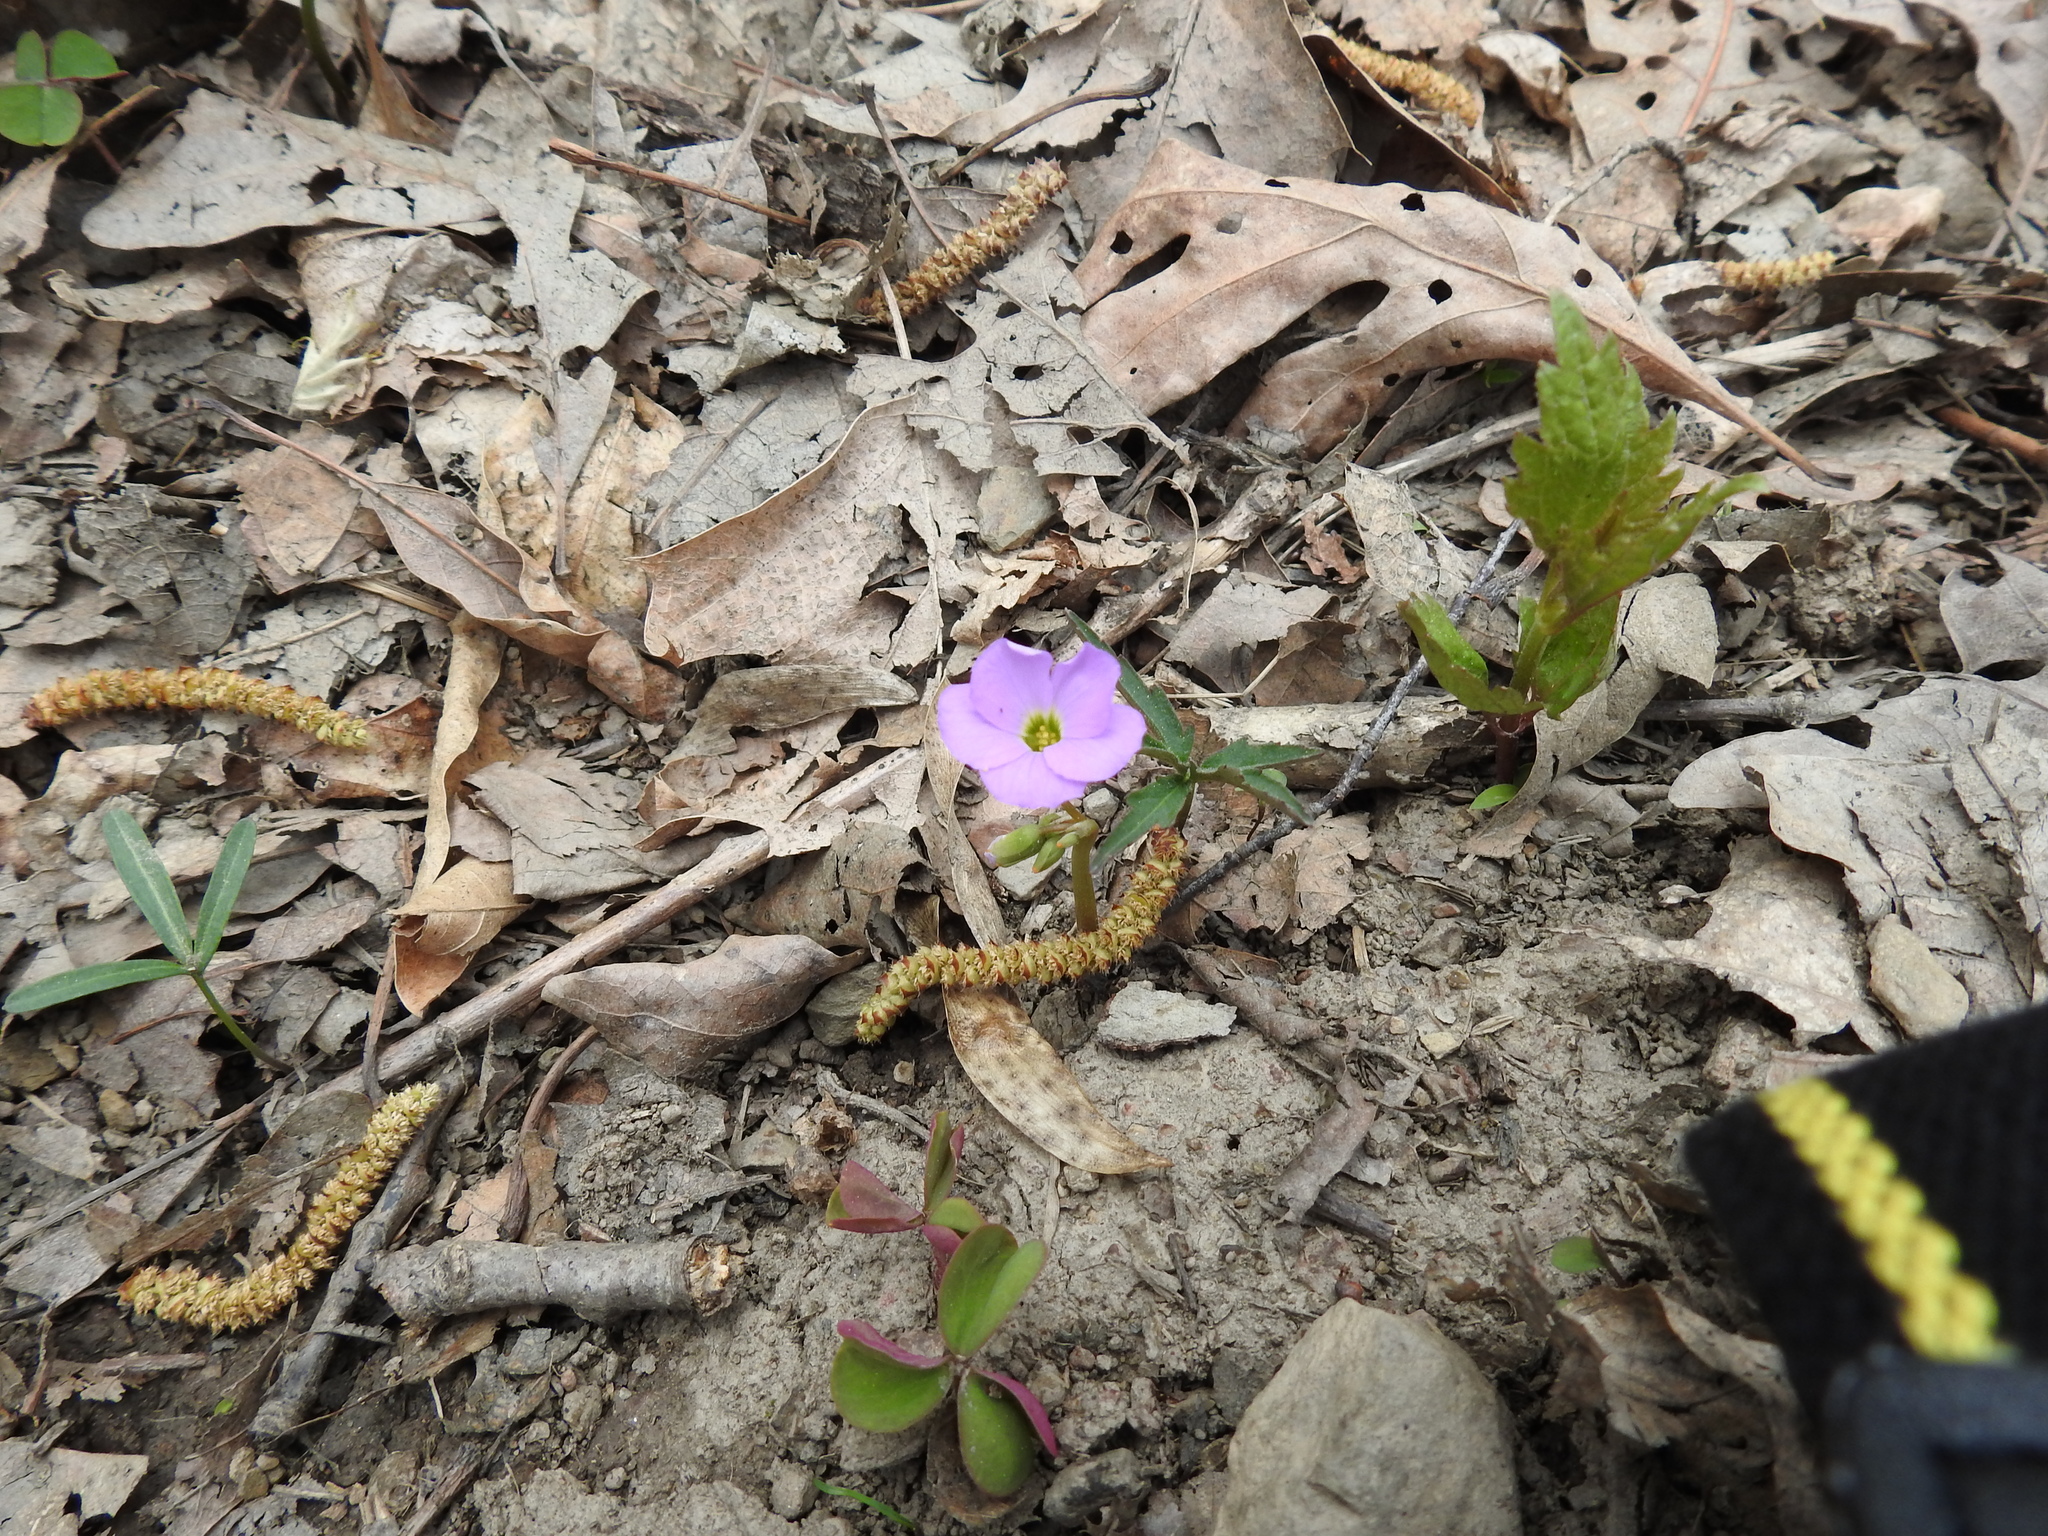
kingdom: Plantae
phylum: Tracheophyta
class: Magnoliopsida
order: Oxalidales
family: Oxalidaceae
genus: Oxalis
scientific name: Oxalis violacea
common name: Violet wood-sorrel
